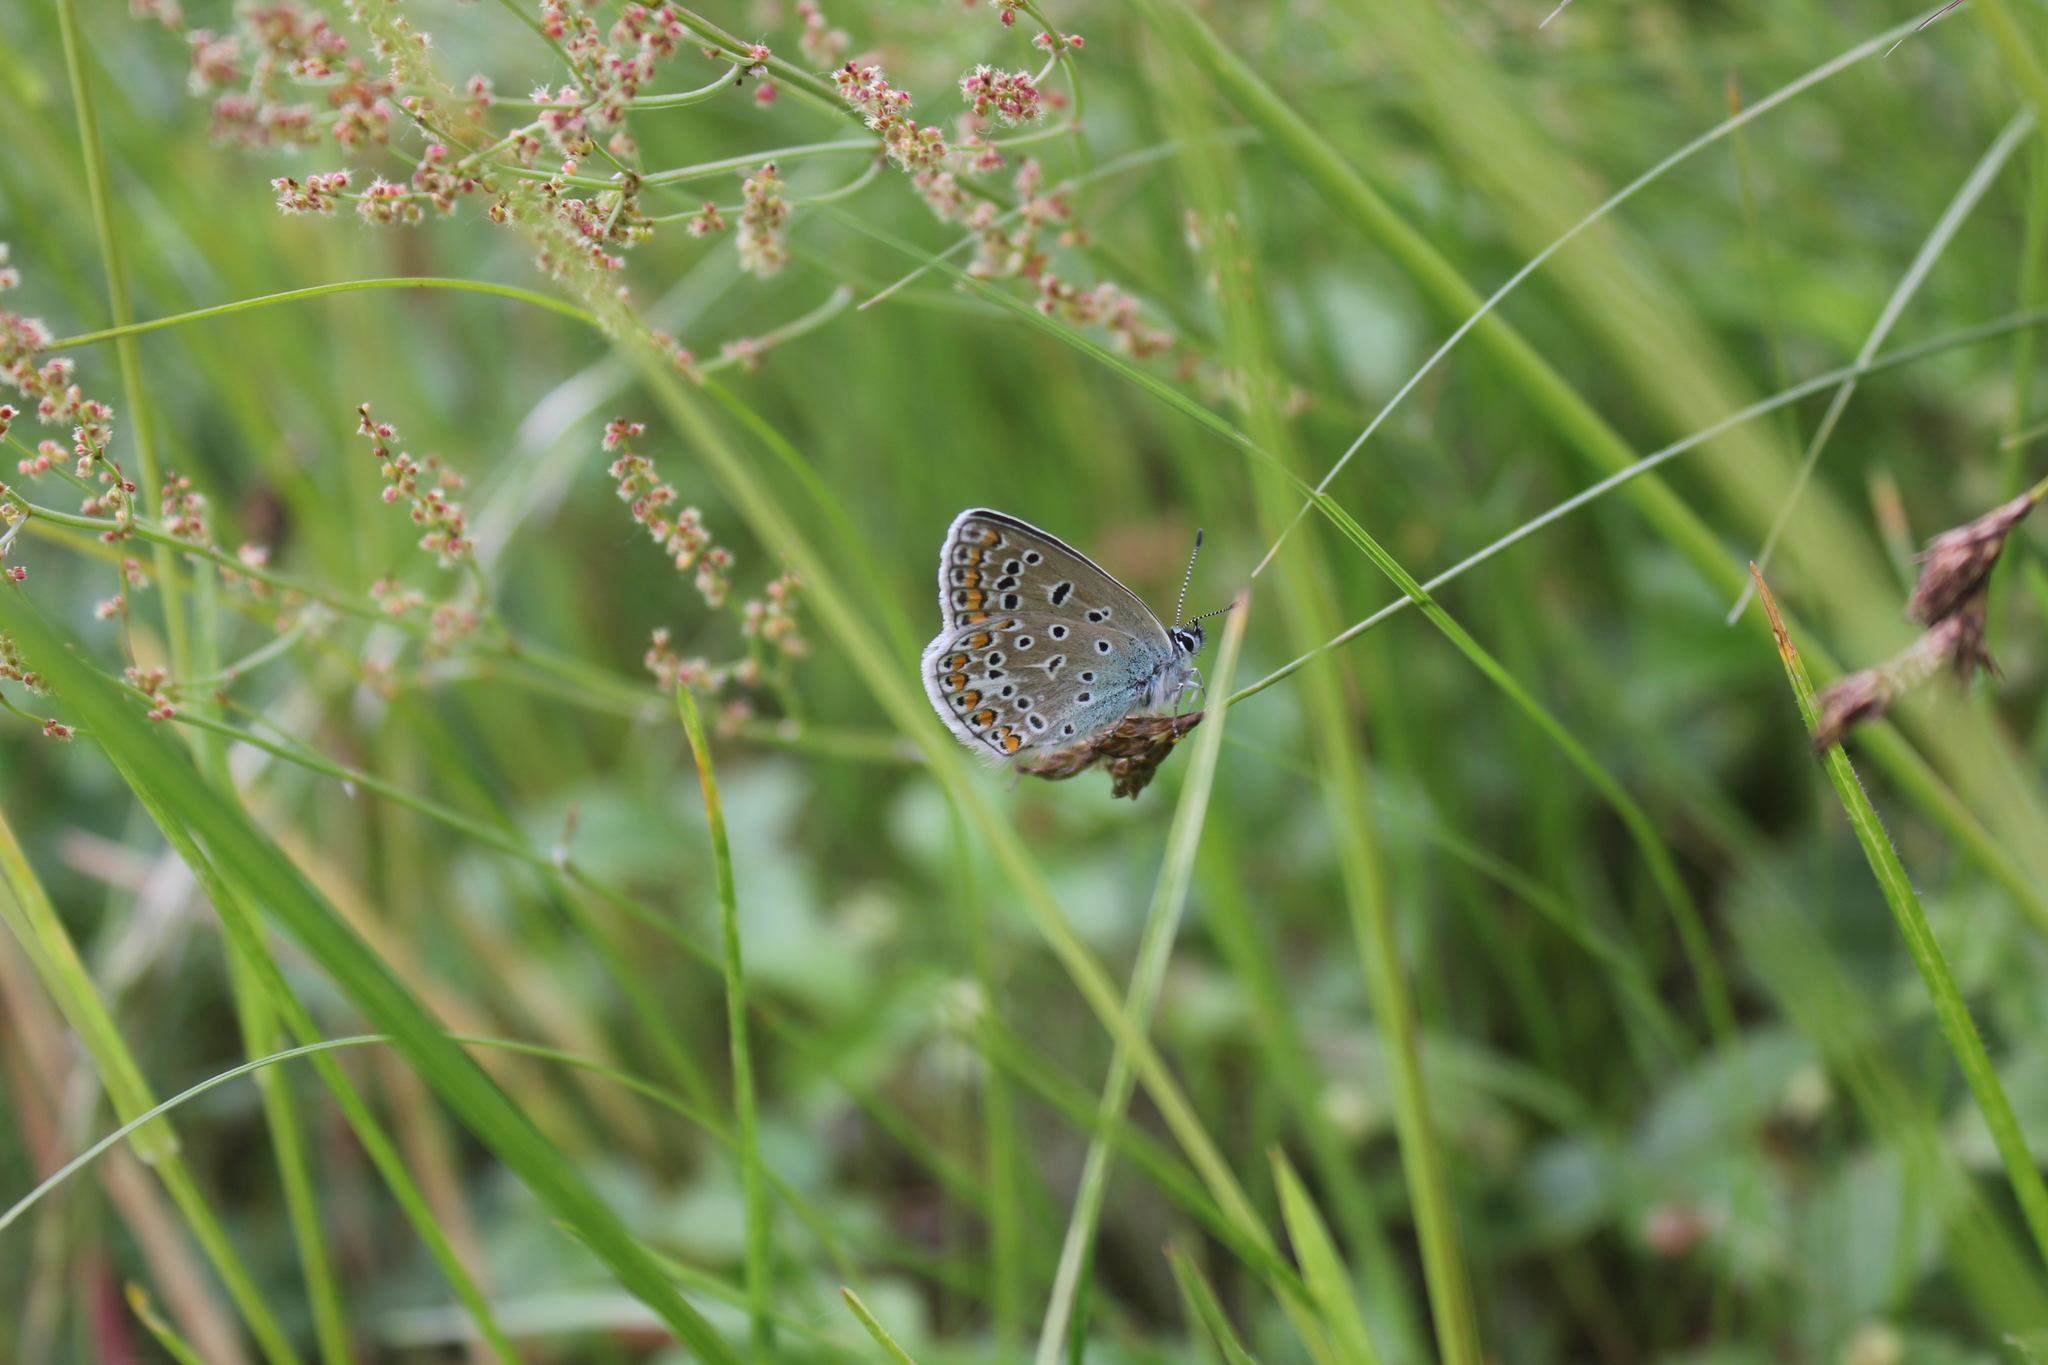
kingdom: Animalia
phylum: Arthropoda
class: Insecta
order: Lepidoptera
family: Lycaenidae
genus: Polyommatus
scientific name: Polyommatus icarus
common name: Common blue
